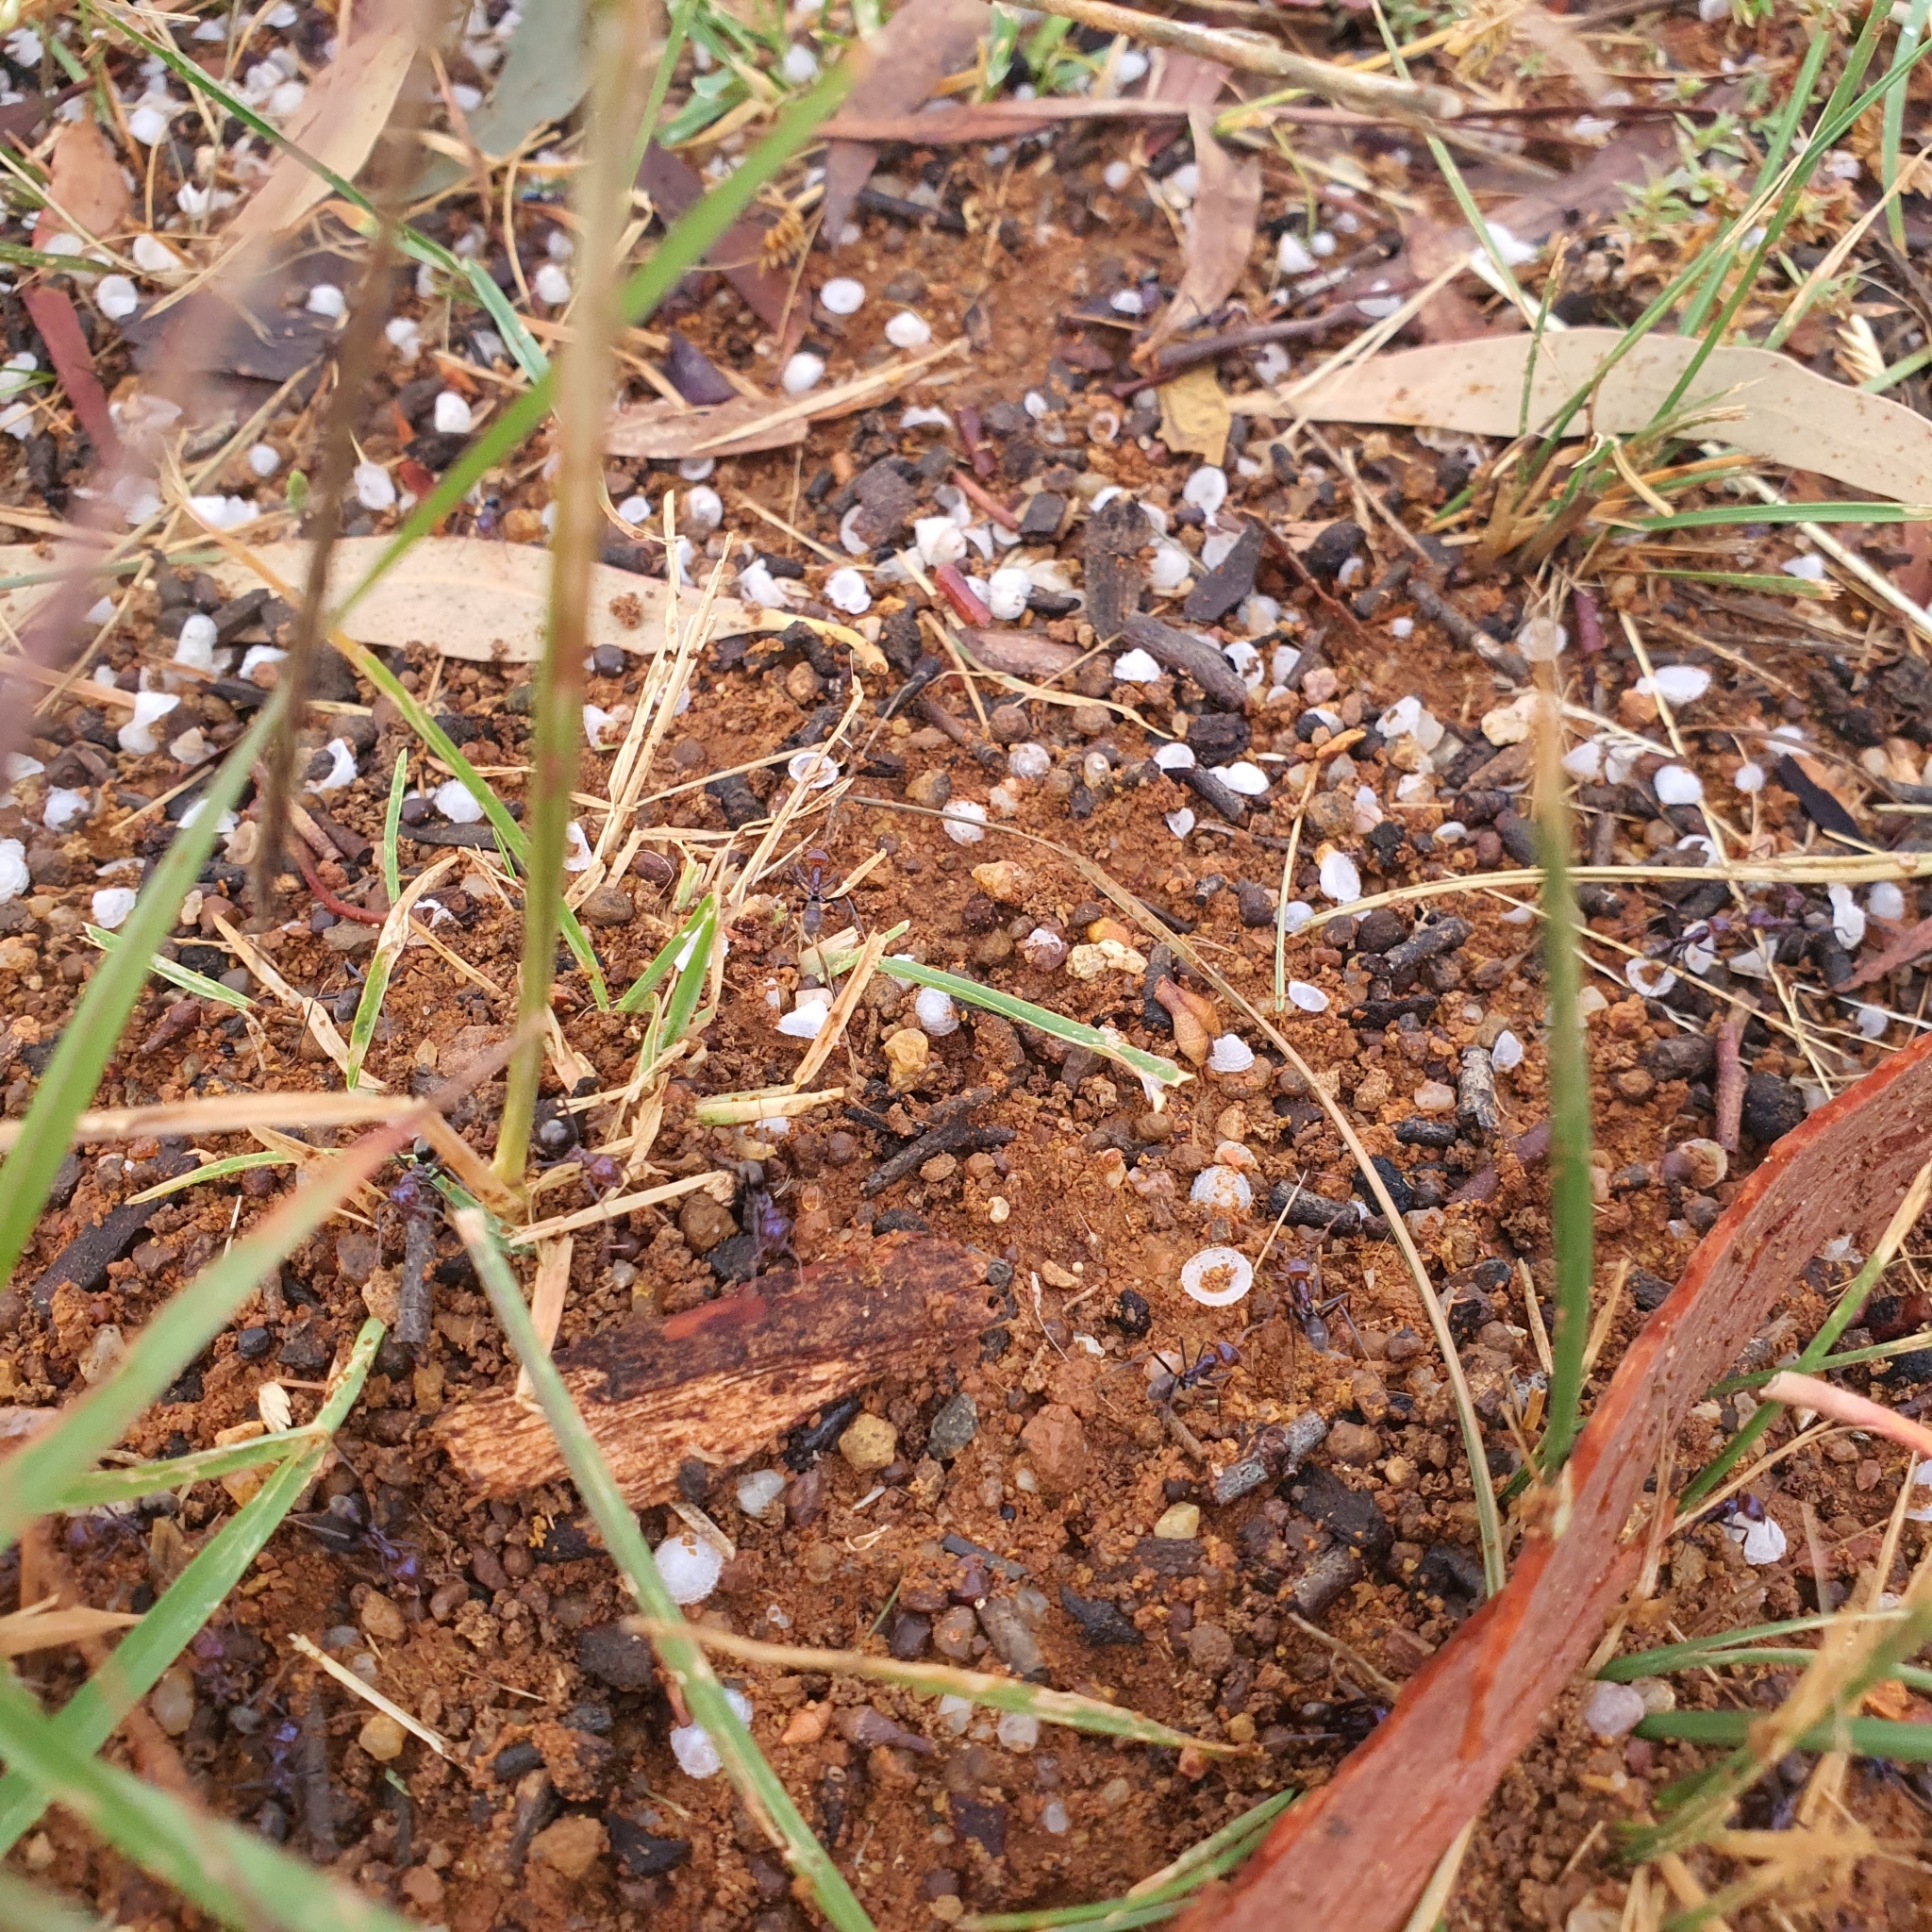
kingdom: Animalia
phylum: Arthropoda
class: Insecta
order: Hymenoptera
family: Formicidae
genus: Iridomyrmex
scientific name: Iridomyrmex purpureus
